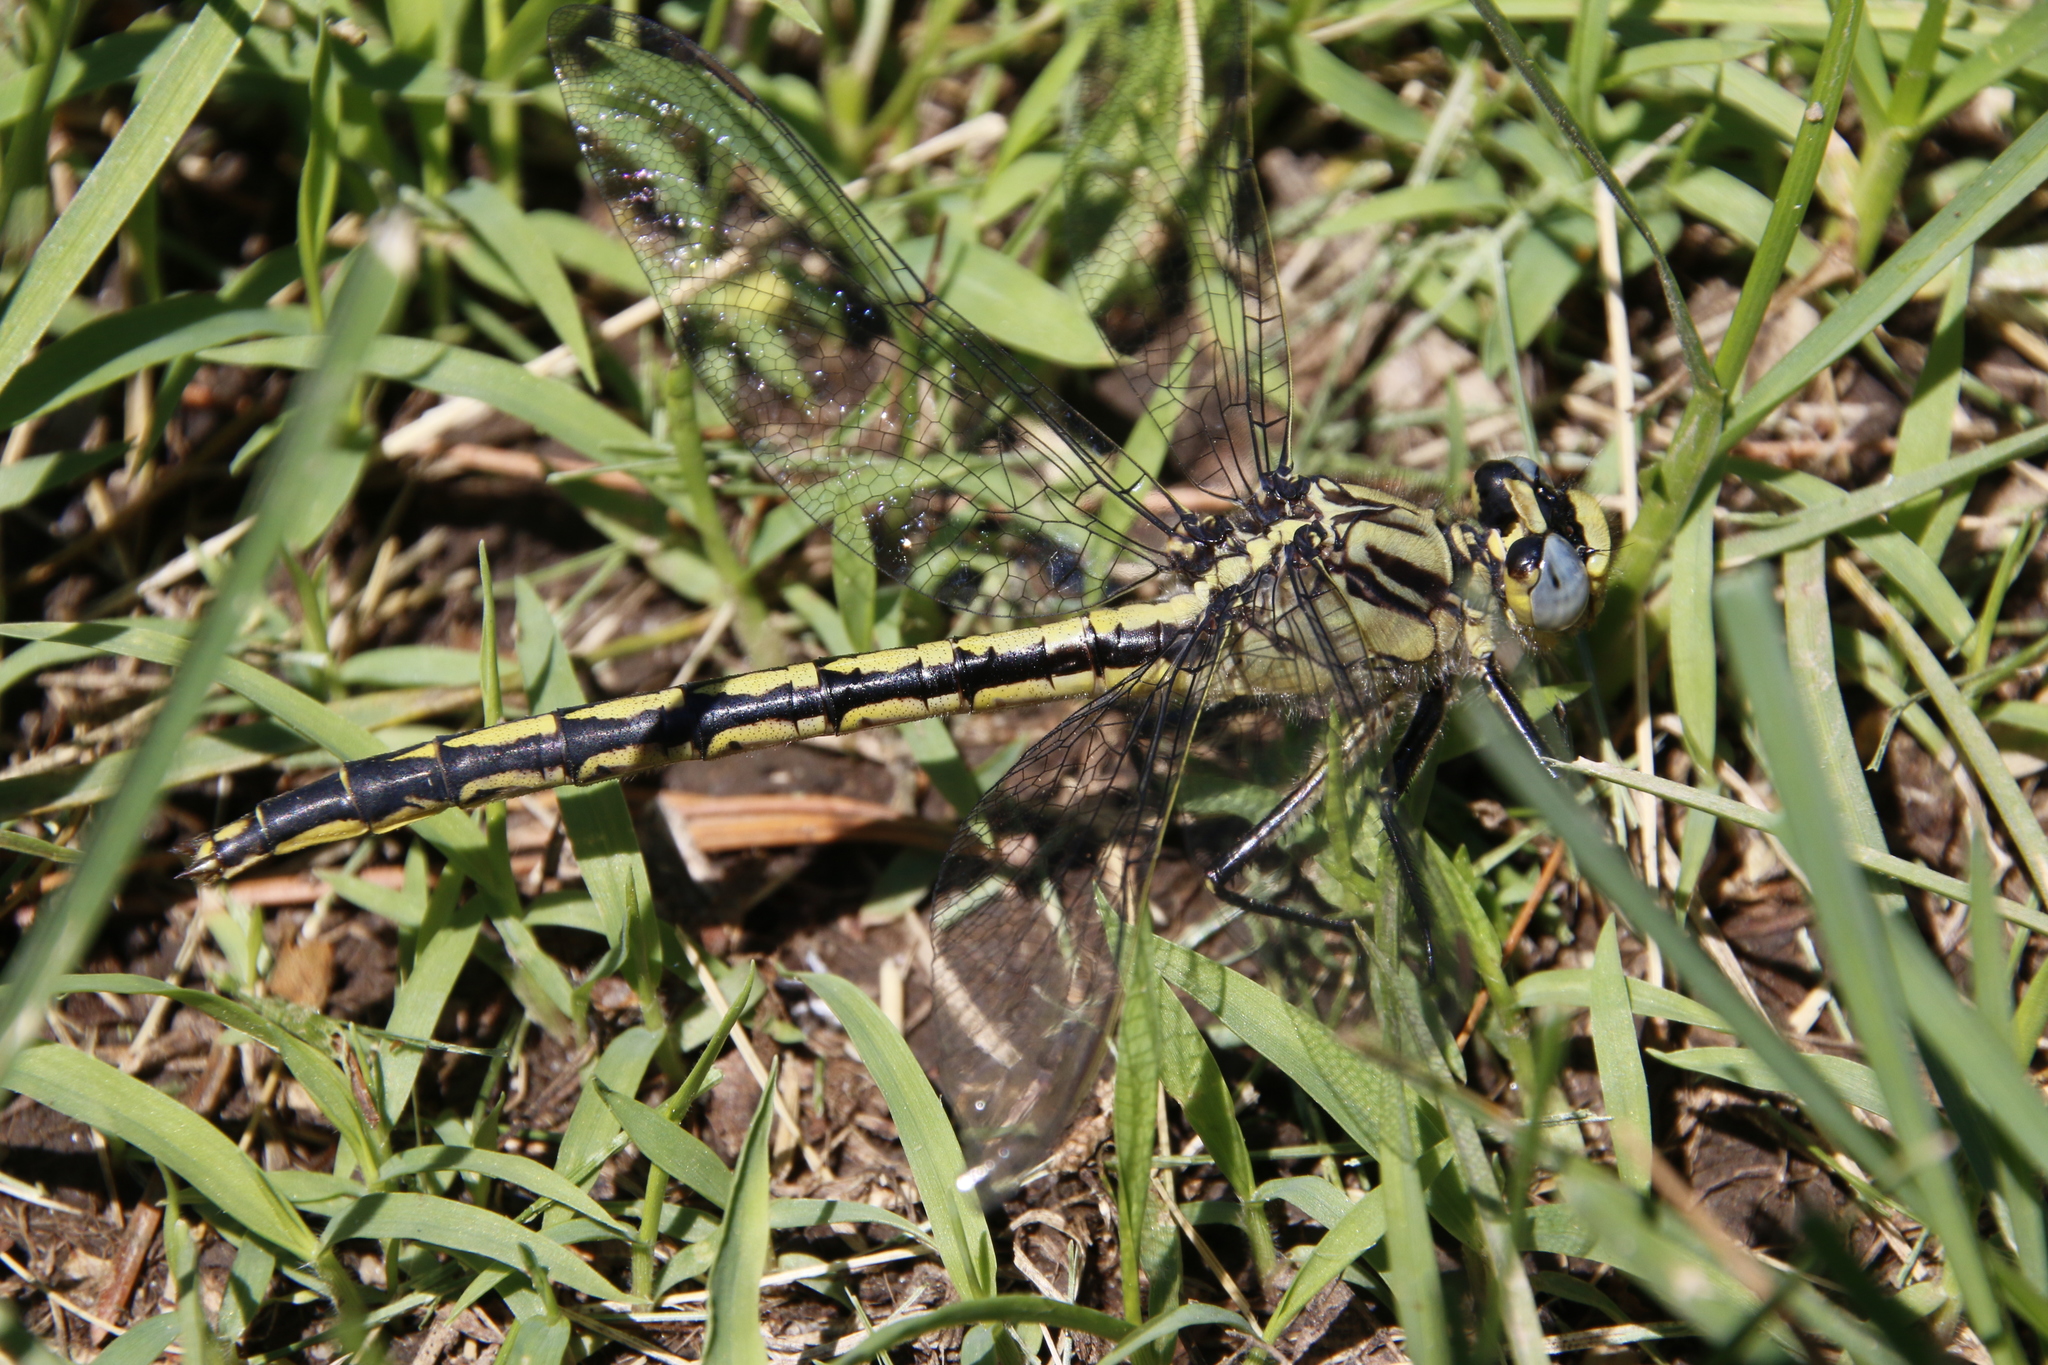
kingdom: Animalia
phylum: Arthropoda
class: Insecta
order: Odonata
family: Gomphidae
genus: Arigomphus
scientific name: Arigomphus cornutus
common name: Horned clubtail
